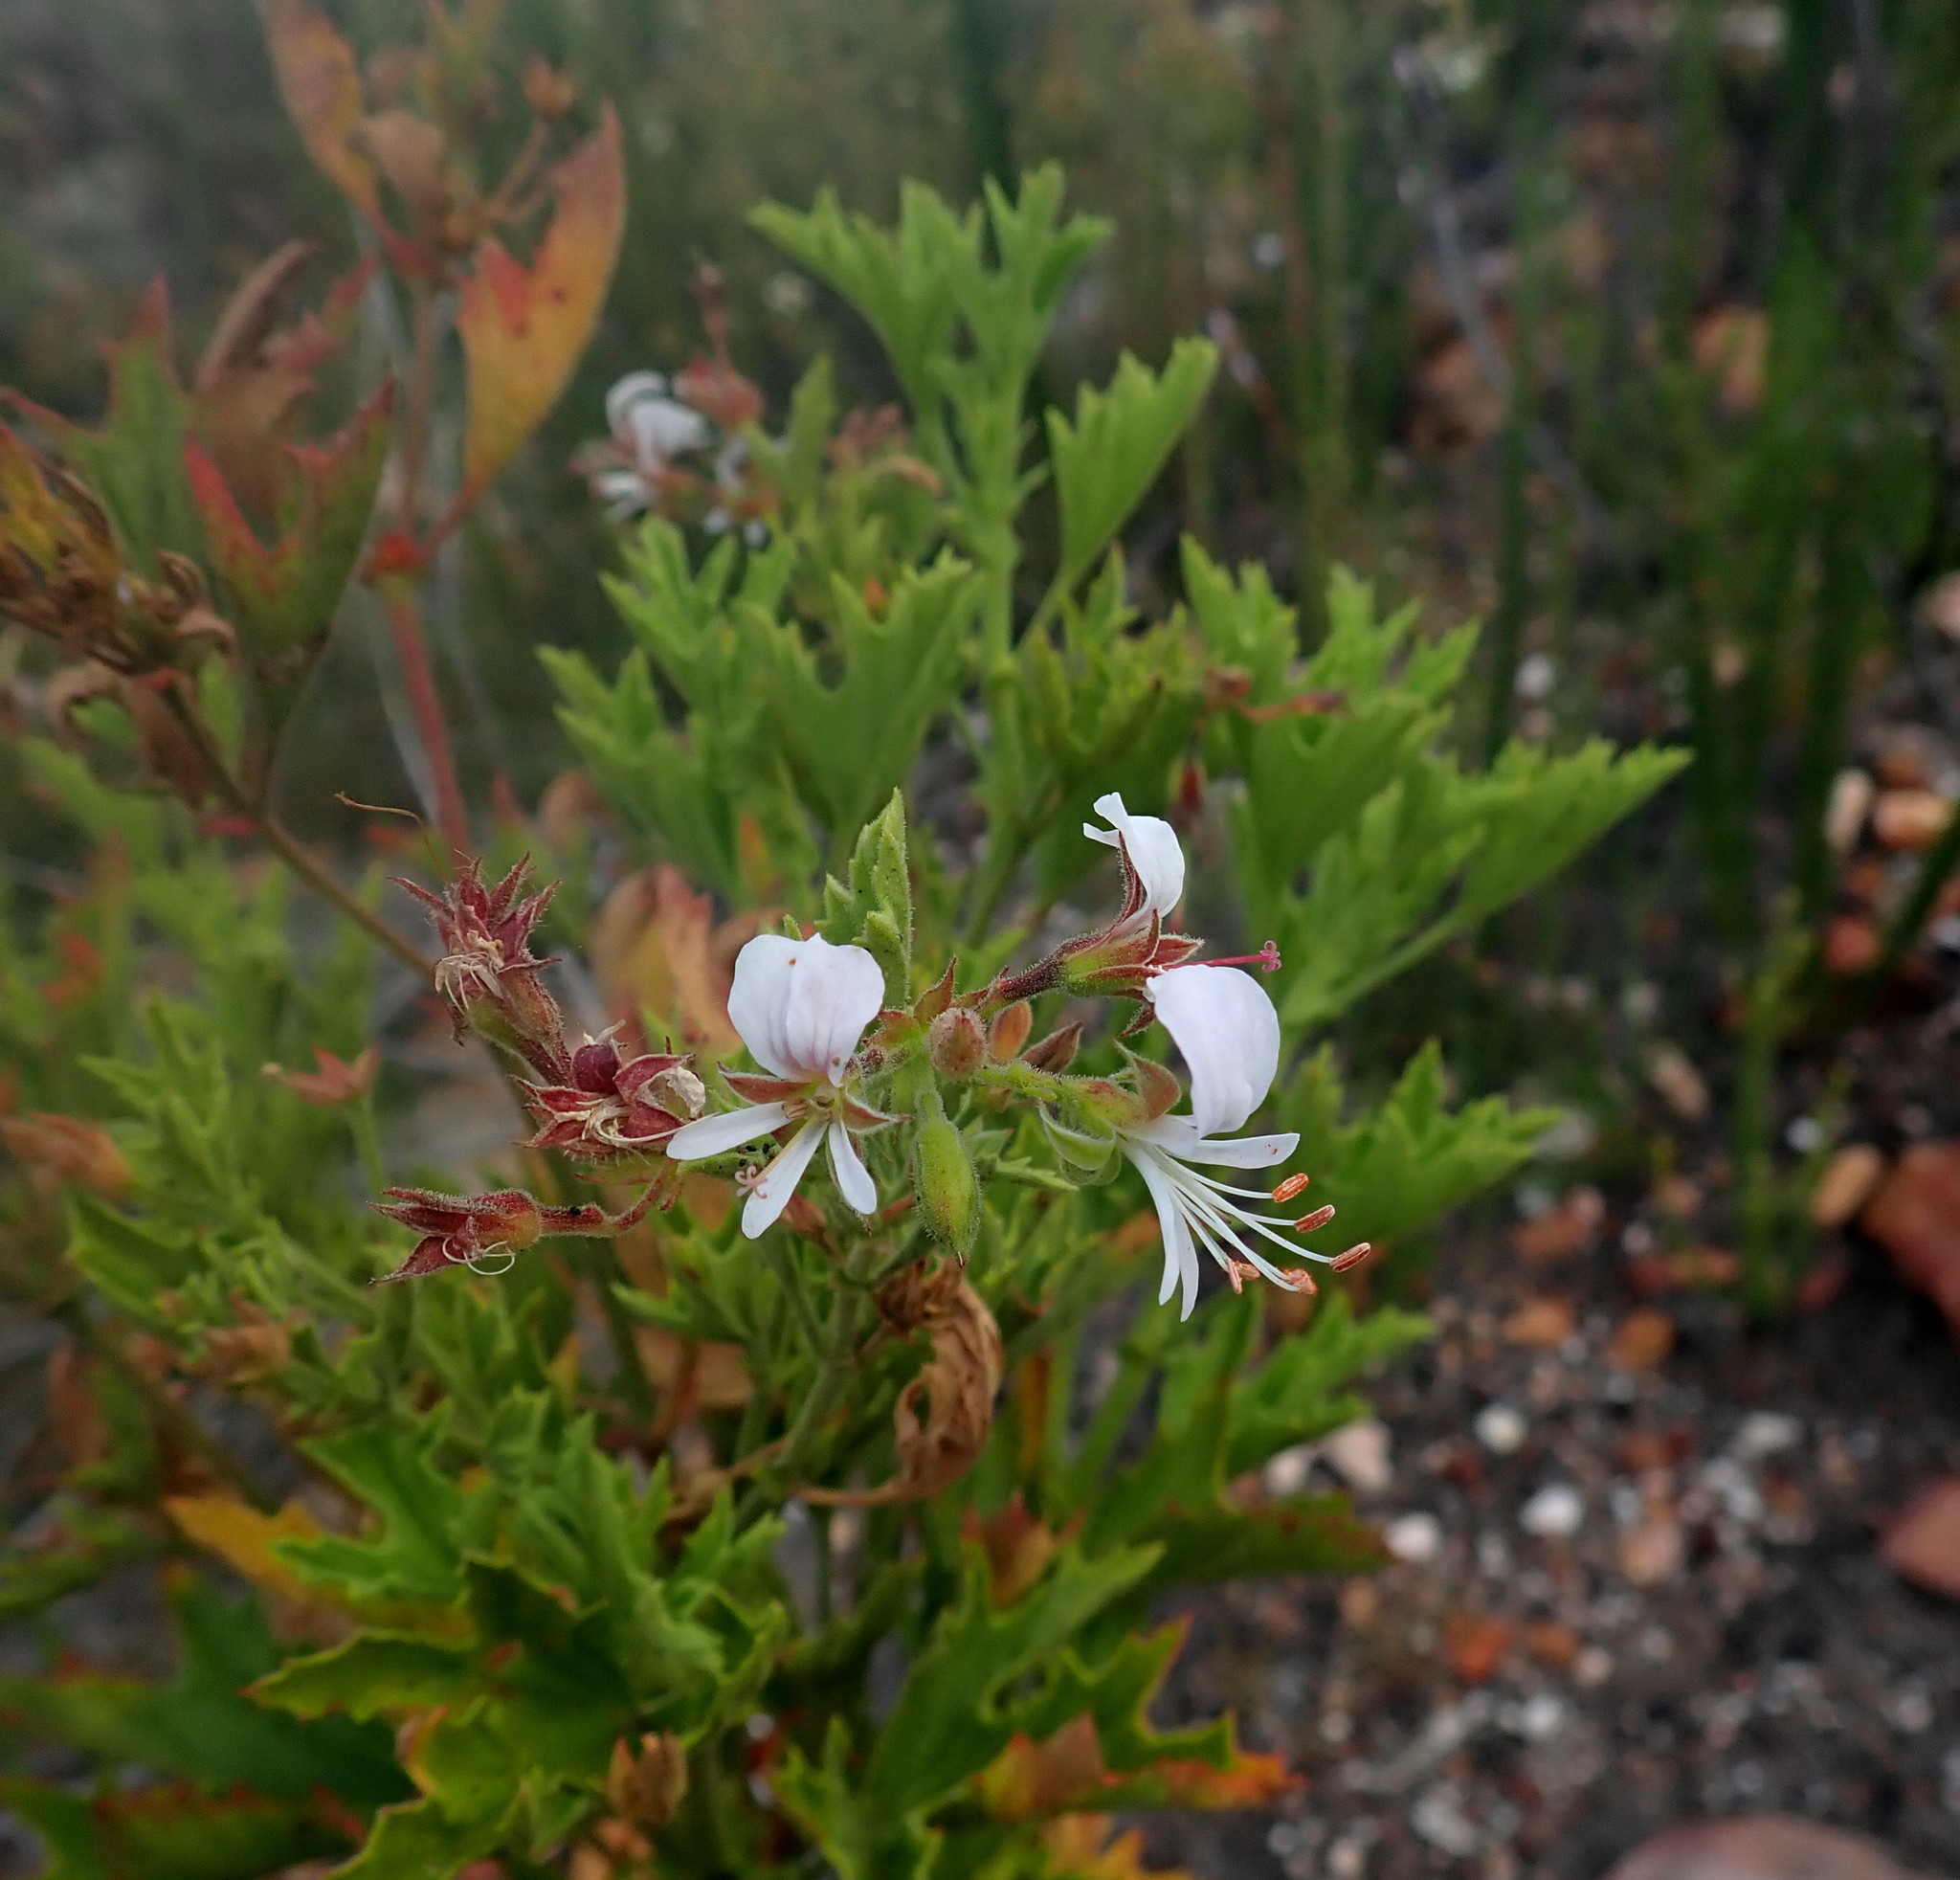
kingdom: Plantae
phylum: Tracheophyta
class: Magnoliopsida
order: Geraniales
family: Geraniaceae
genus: Pelargonium
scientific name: Pelargonium scabrum
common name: Apricot geranium
